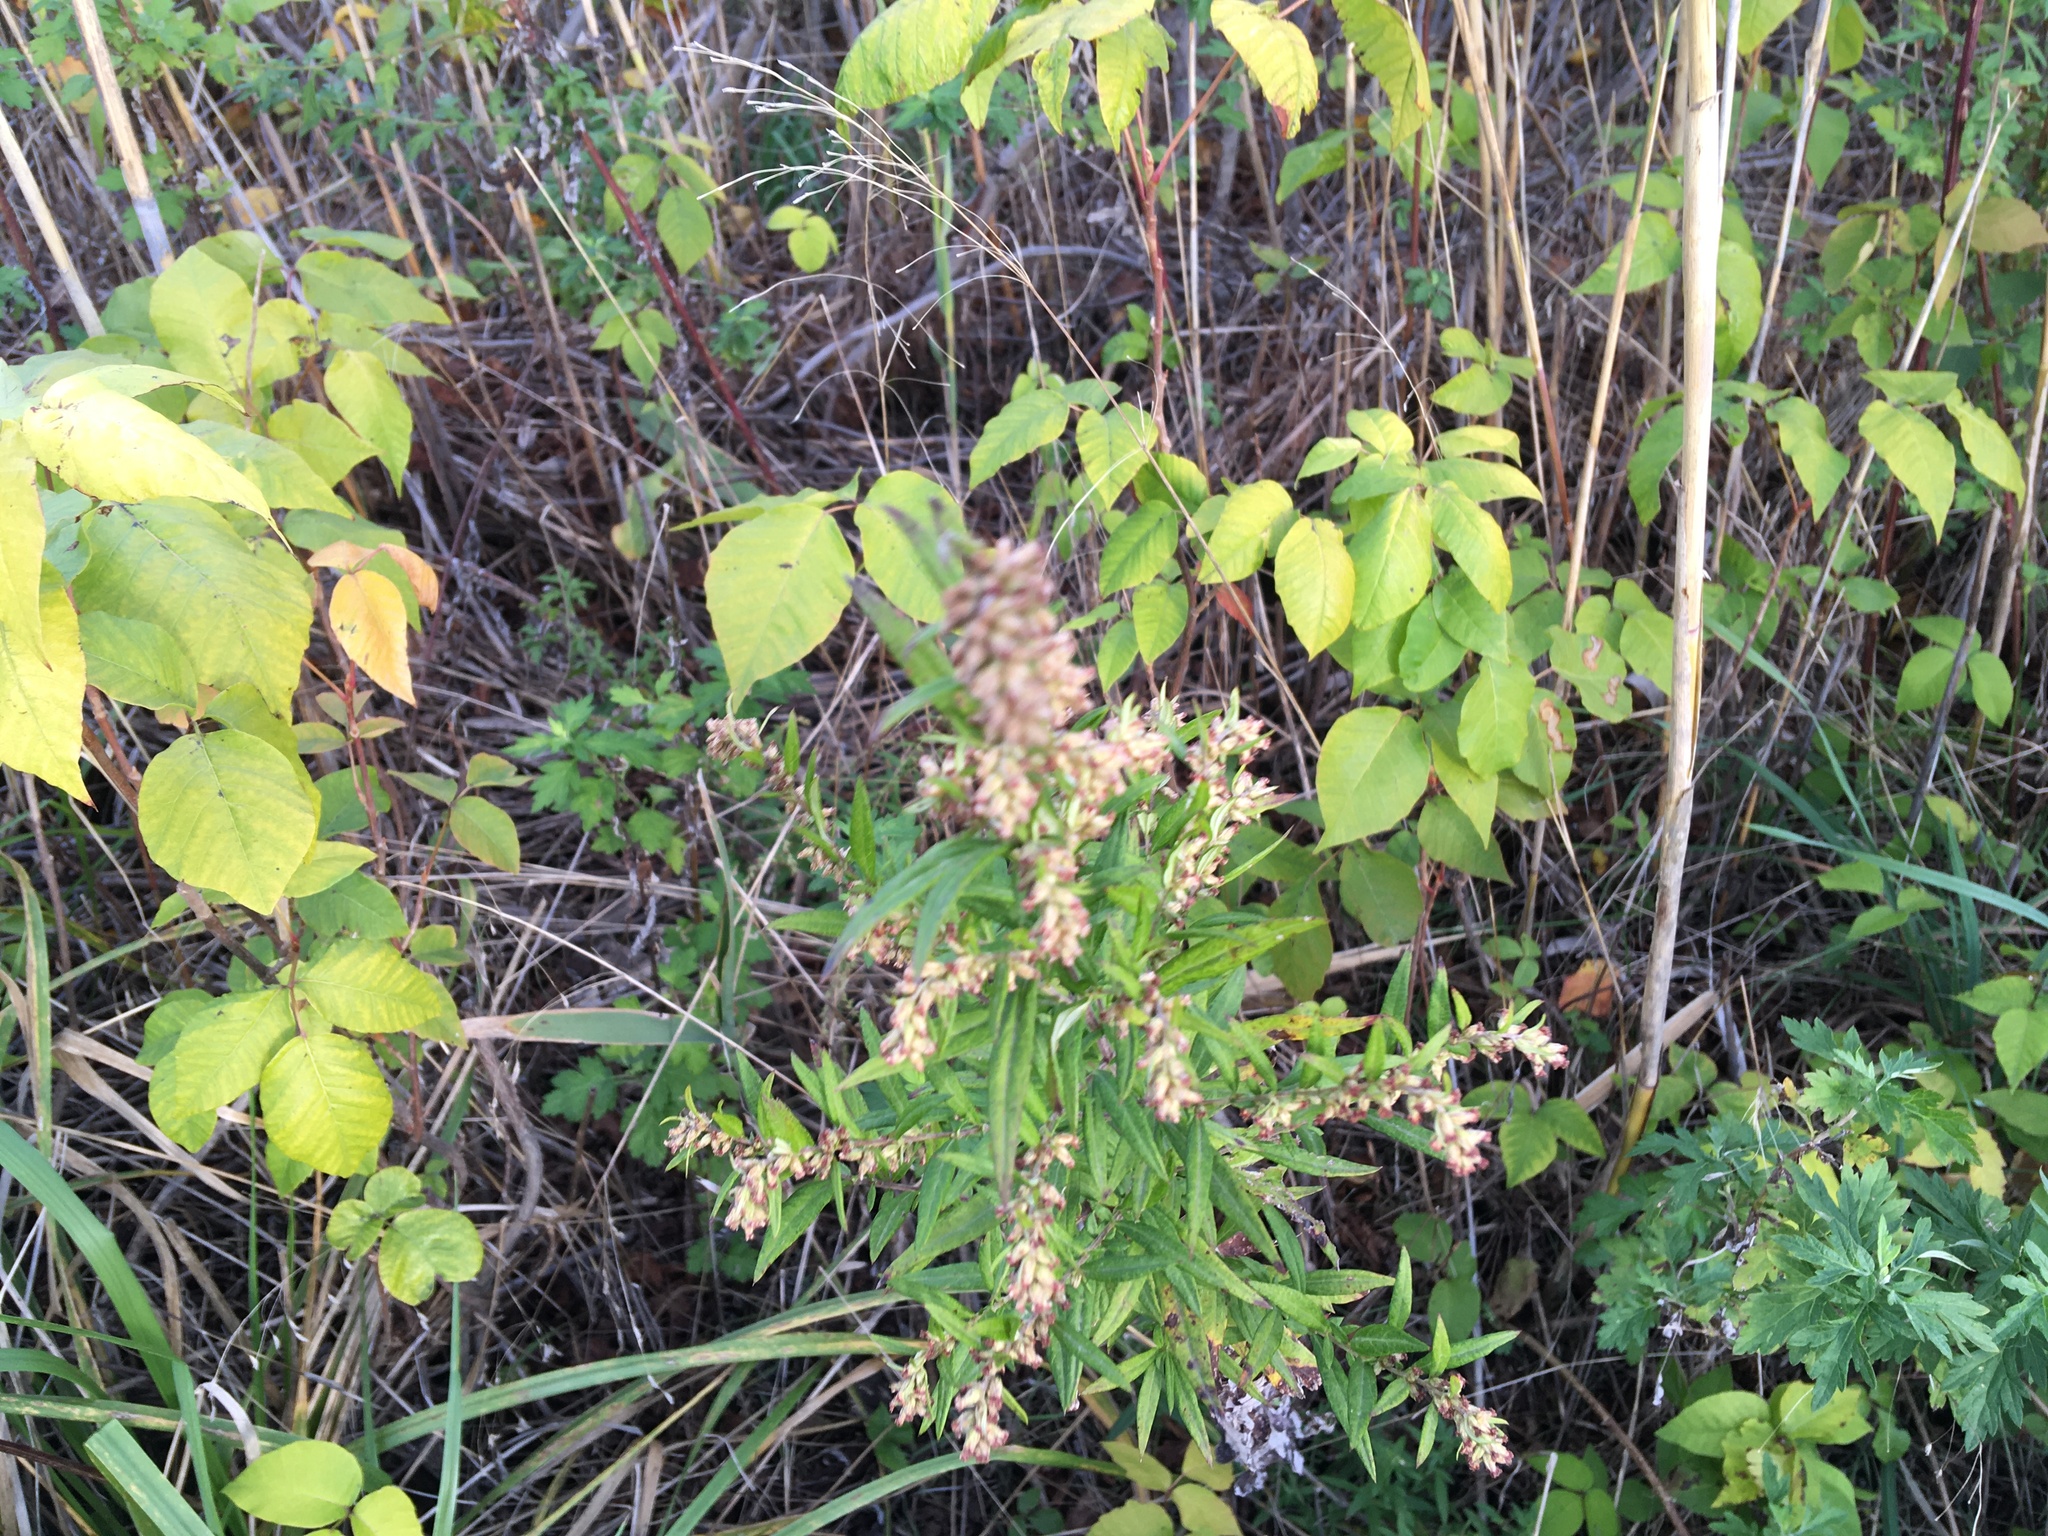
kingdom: Plantae
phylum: Tracheophyta
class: Magnoliopsida
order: Asterales
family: Asteraceae
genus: Artemisia
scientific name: Artemisia vulgaris
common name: Mugwort
